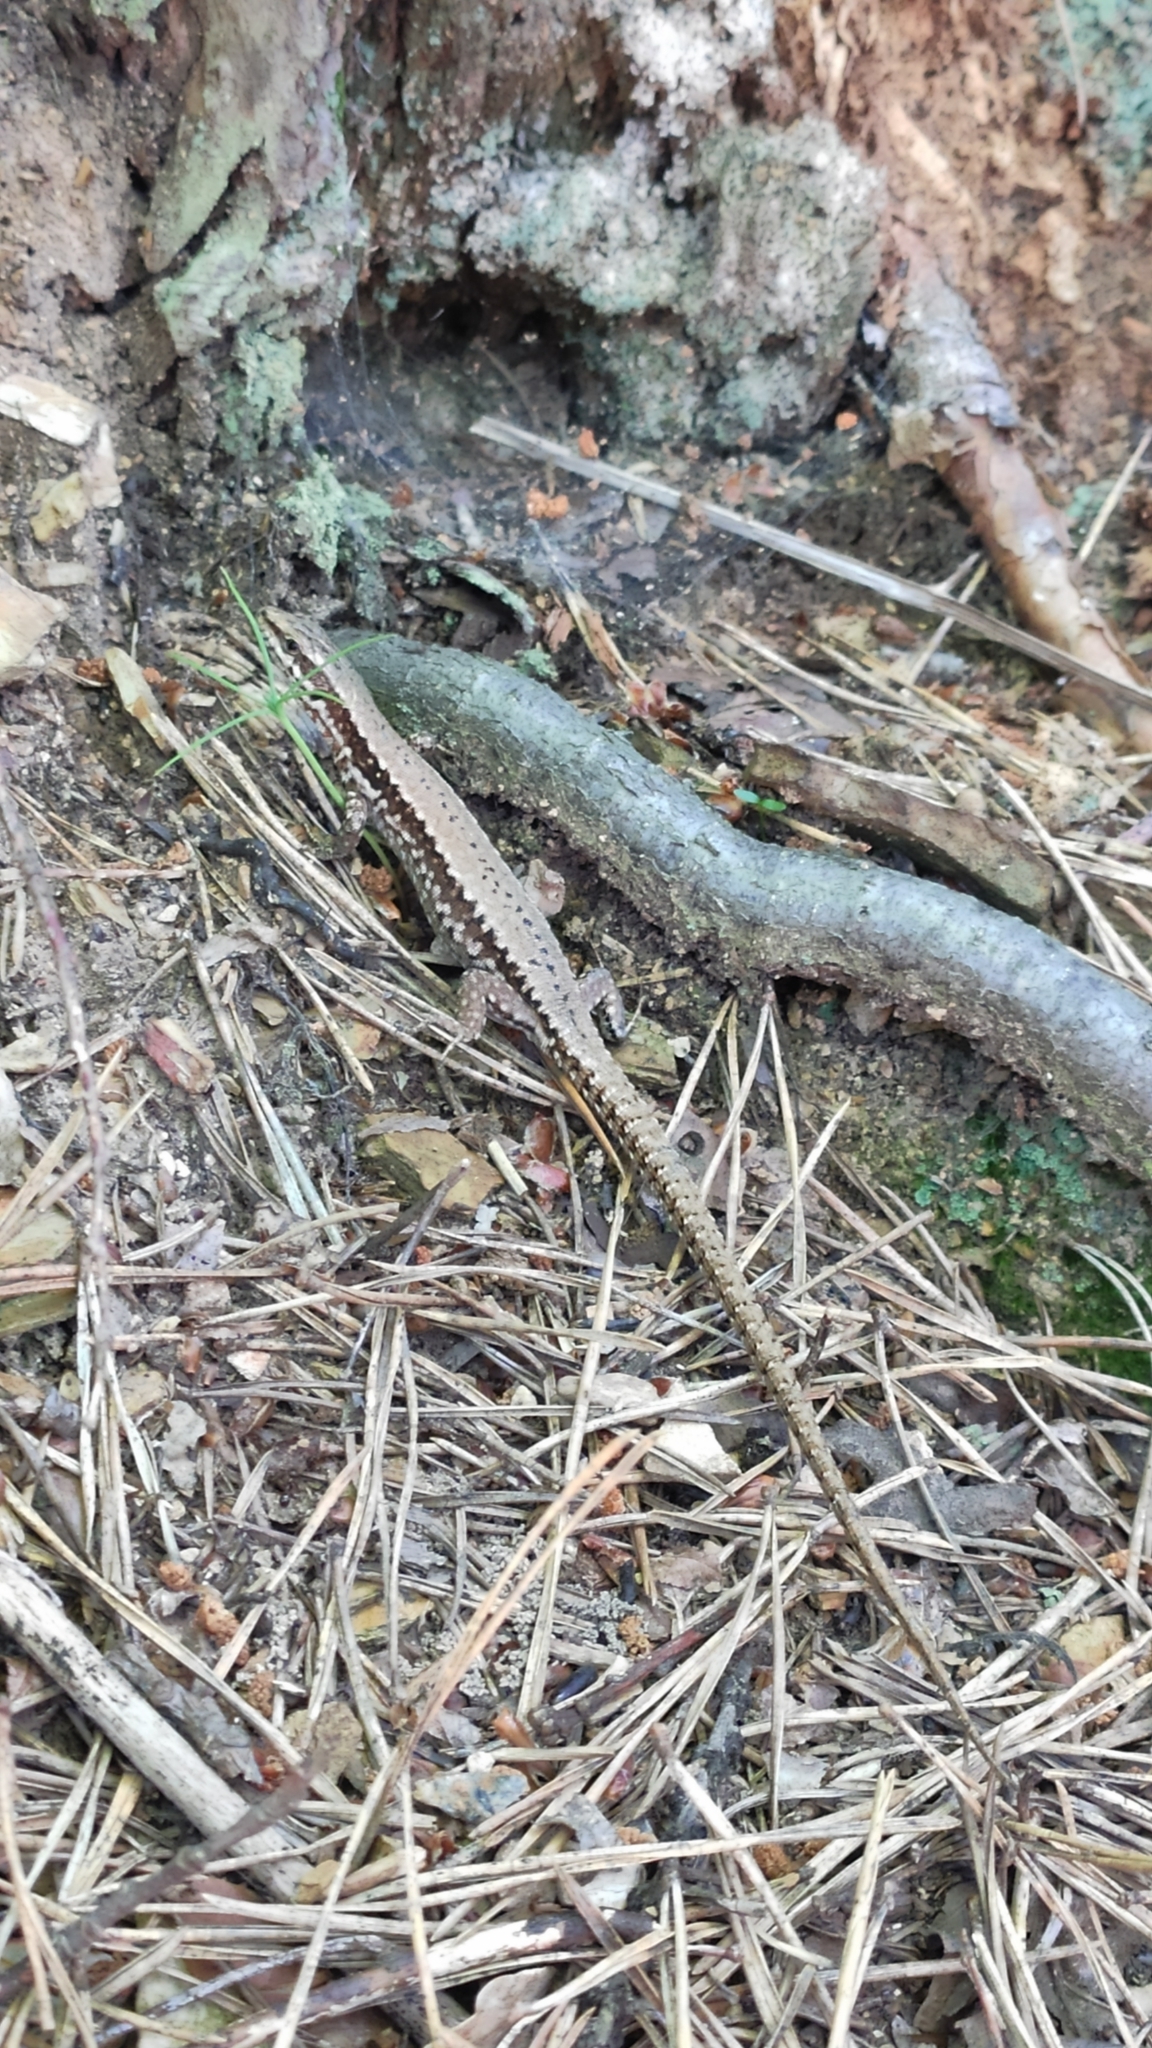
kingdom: Animalia
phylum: Chordata
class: Squamata
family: Lacertidae
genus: Podarcis
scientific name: Podarcis muralis
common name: Common wall lizard
